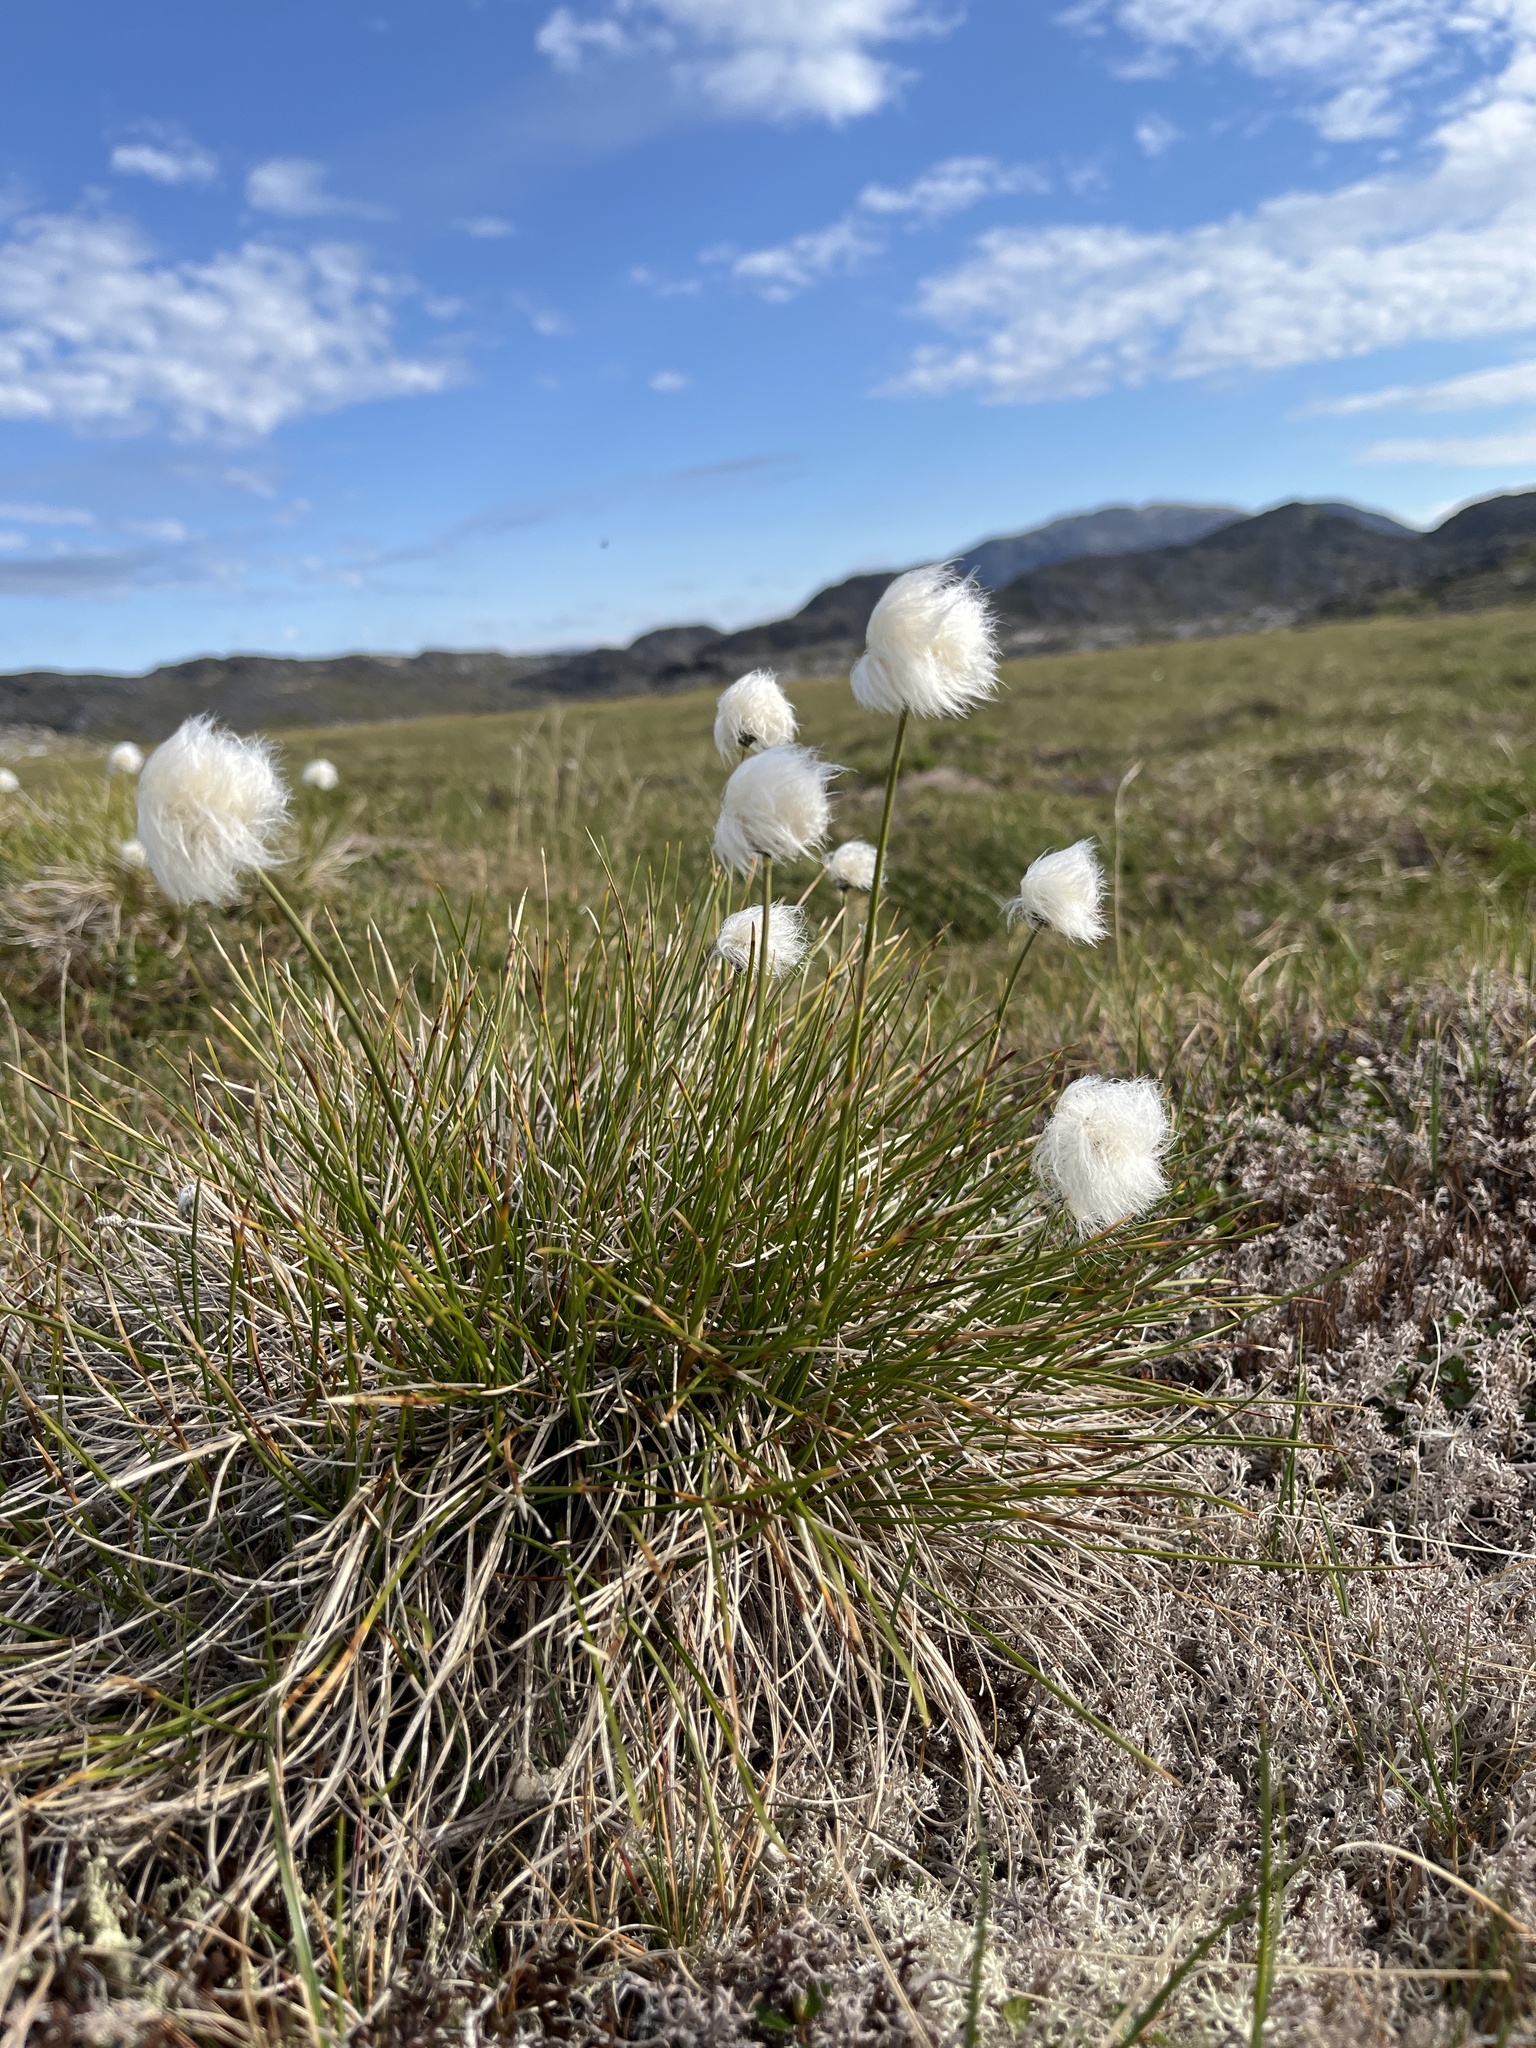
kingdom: Plantae
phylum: Tracheophyta
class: Liliopsida
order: Poales
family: Cyperaceae
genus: Eriophorum
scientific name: Eriophorum vaginatum
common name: Hare's-tail cottongrass
